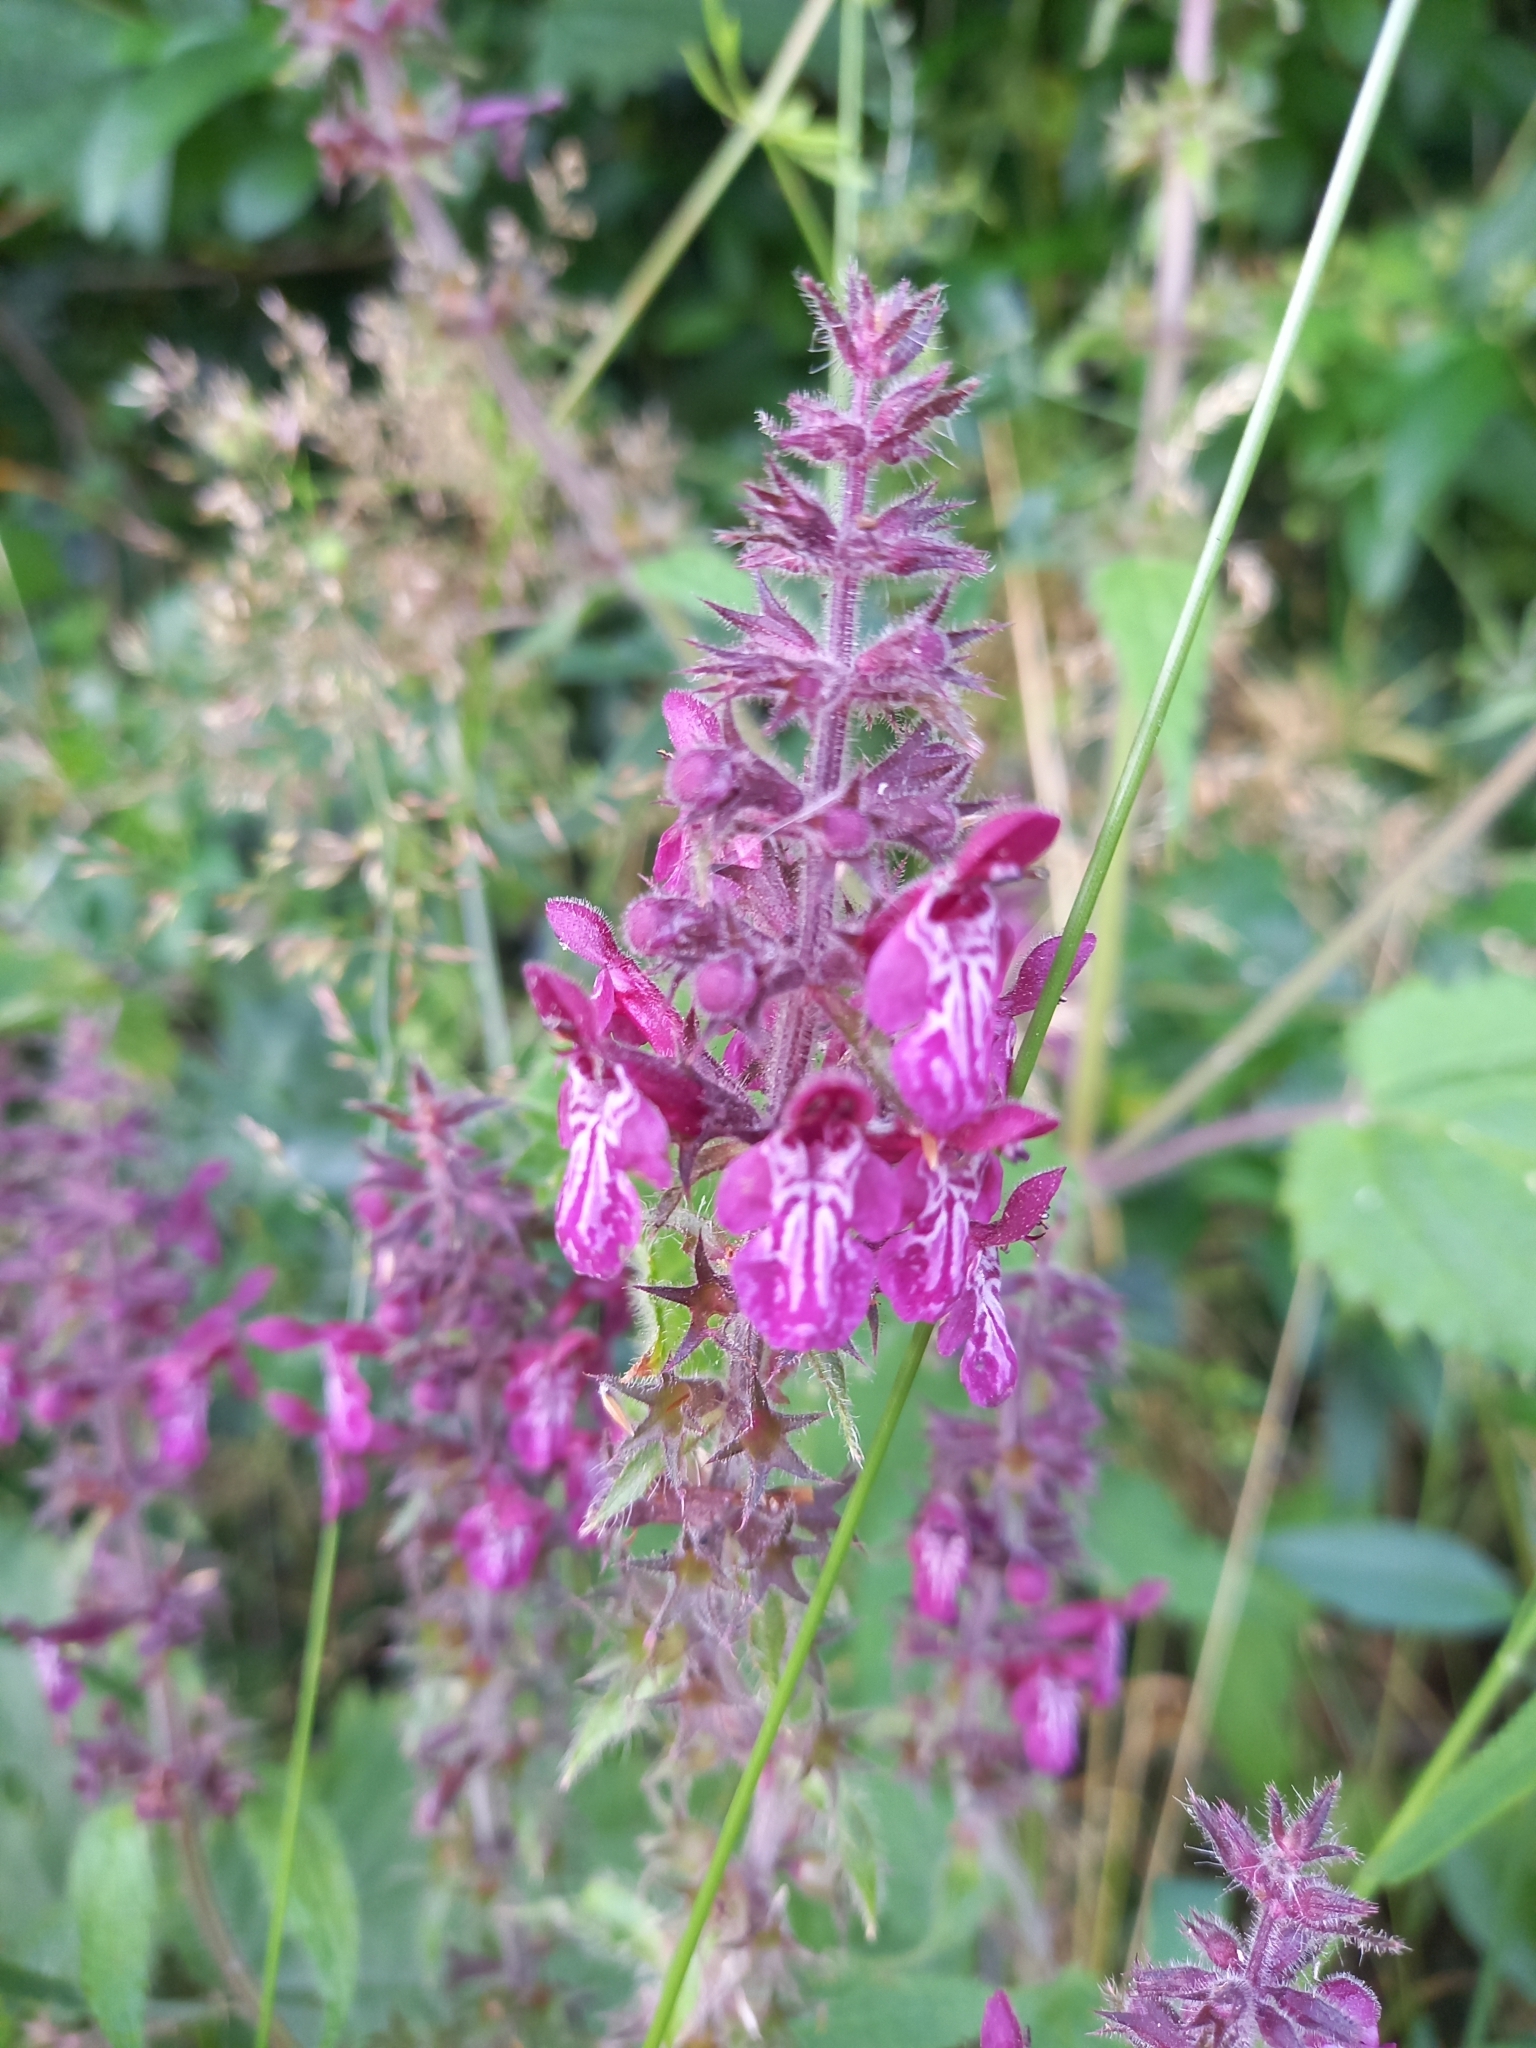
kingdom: Plantae
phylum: Tracheophyta
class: Magnoliopsida
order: Lamiales
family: Lamiaceae
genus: Stachys
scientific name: Stachys sylvatica
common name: Hedge woundwort
